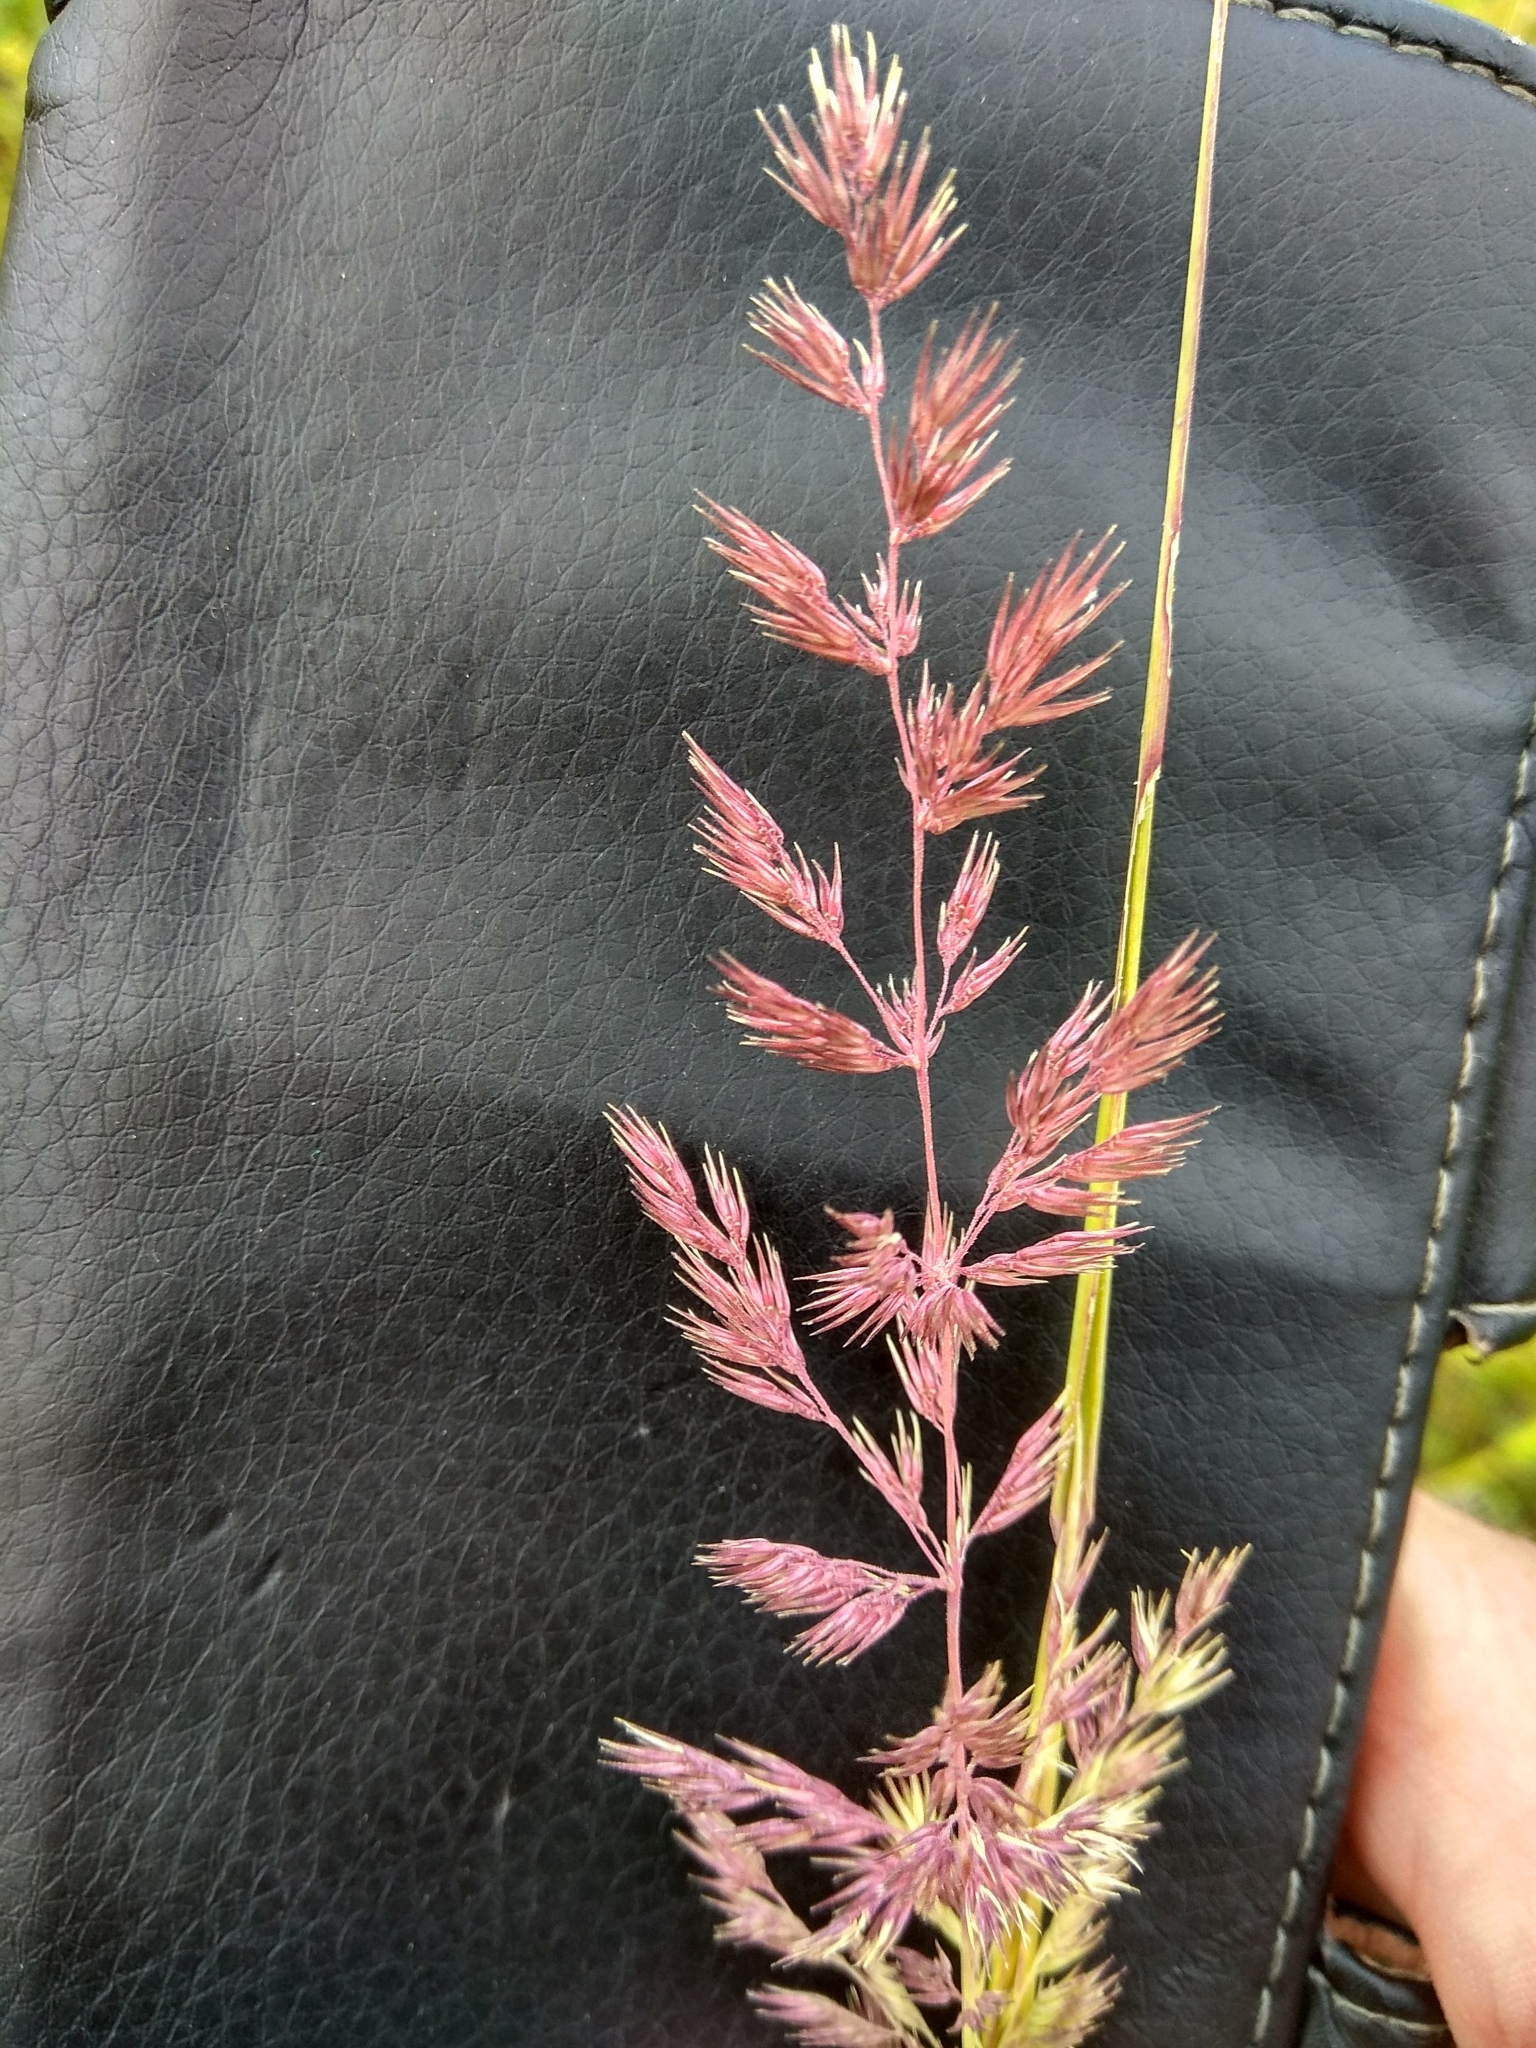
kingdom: Plantae
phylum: Tracheophyta
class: Liliopsida
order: Poales
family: Poaceae
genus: Calamagrostis
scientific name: Calamagrostis epigejos
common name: Wood small-reed
